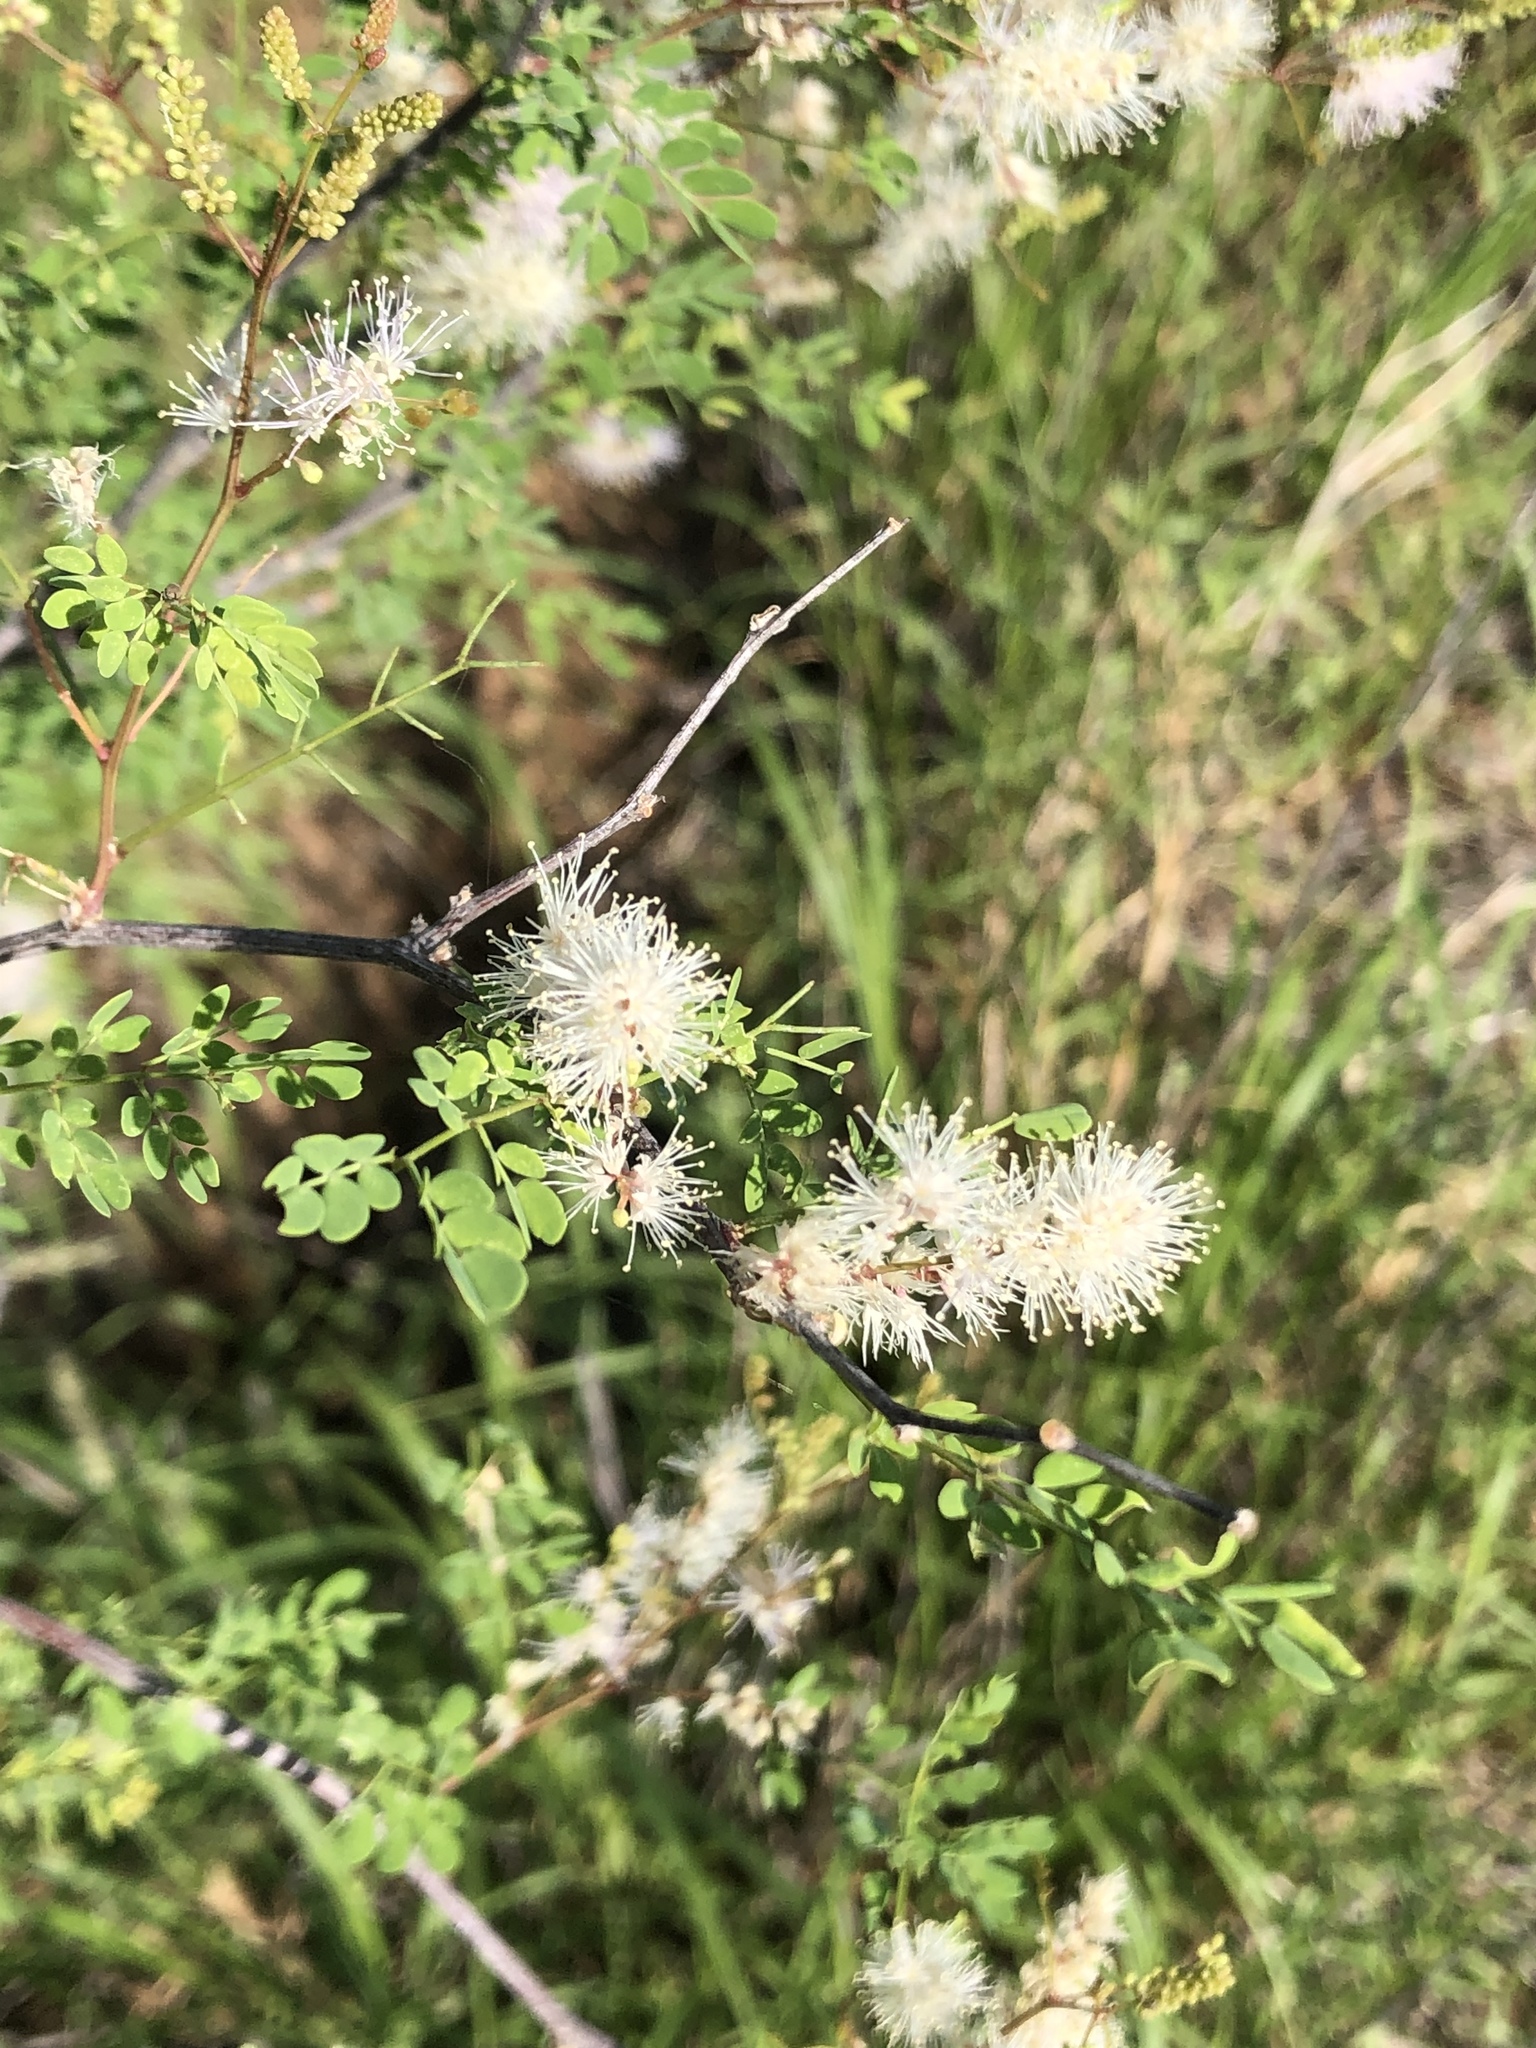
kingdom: Plantae
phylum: Tracheophyta
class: Magnoliopsida
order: Fabales
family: Fabaceae
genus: Mimosa
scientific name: Mimosa distachya
